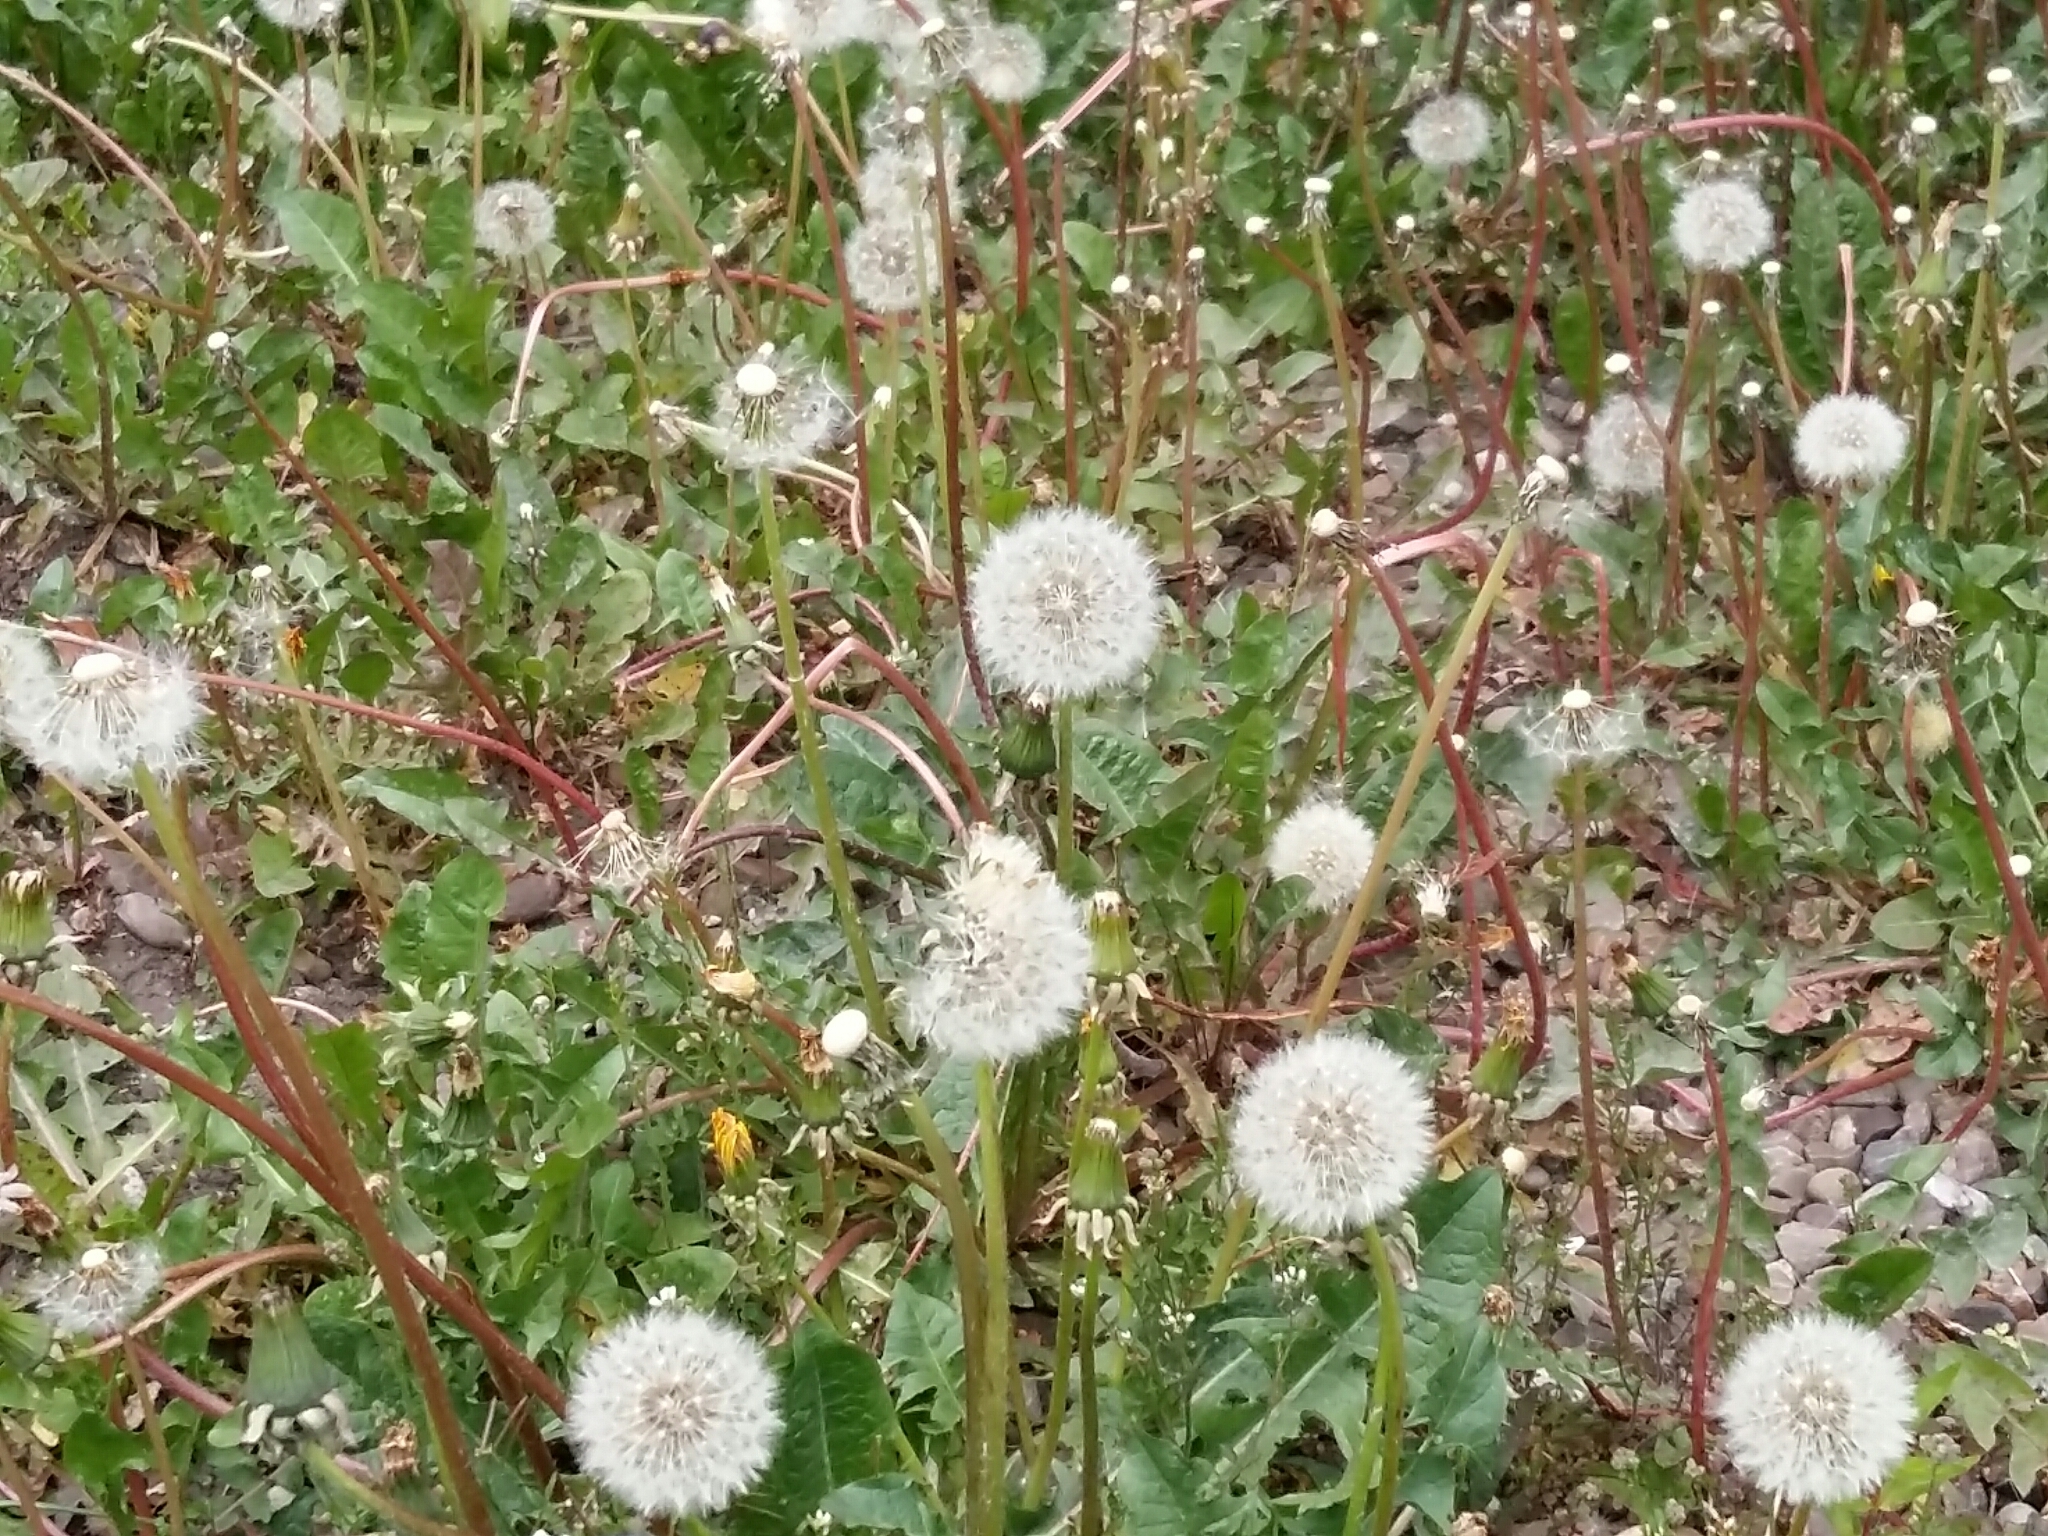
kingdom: Plantae
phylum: Tracheophyta
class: Magnoliopsida
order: Asterales
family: Asteraceae
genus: Taraxacum
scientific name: Taraxacum officinale
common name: Common dandelion
